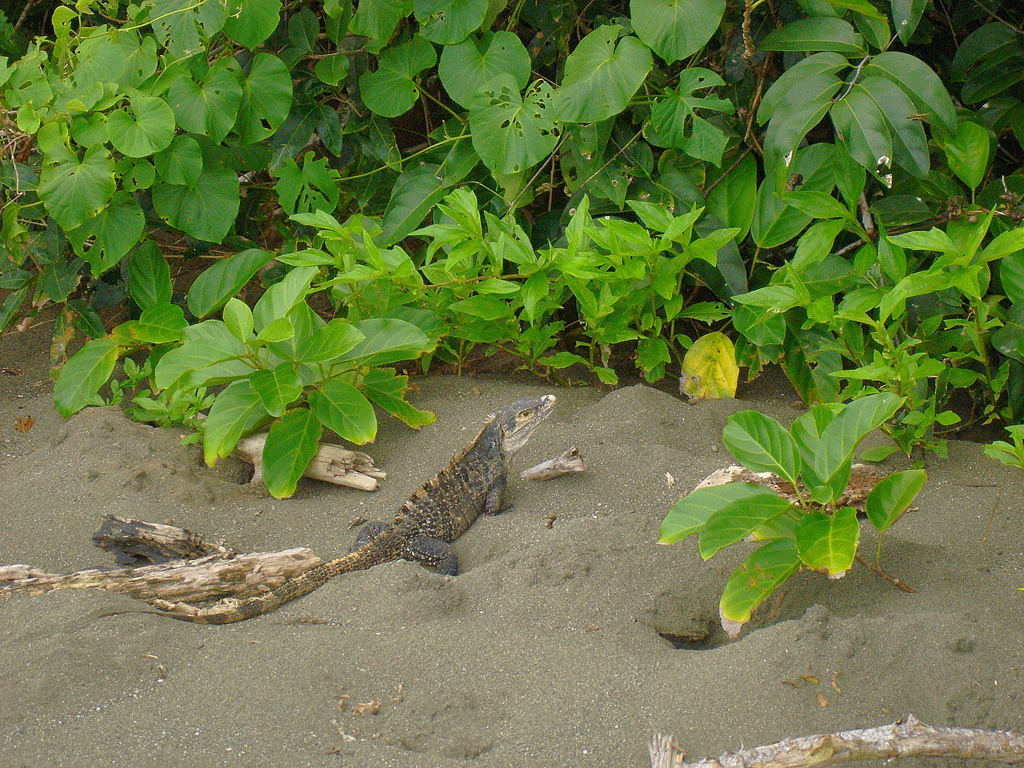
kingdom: Animalia
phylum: Chordata
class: Squamata
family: Iguanidae
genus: Ctenosaura
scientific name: Ctenosaura similis
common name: Black spiny-tailed iguana
